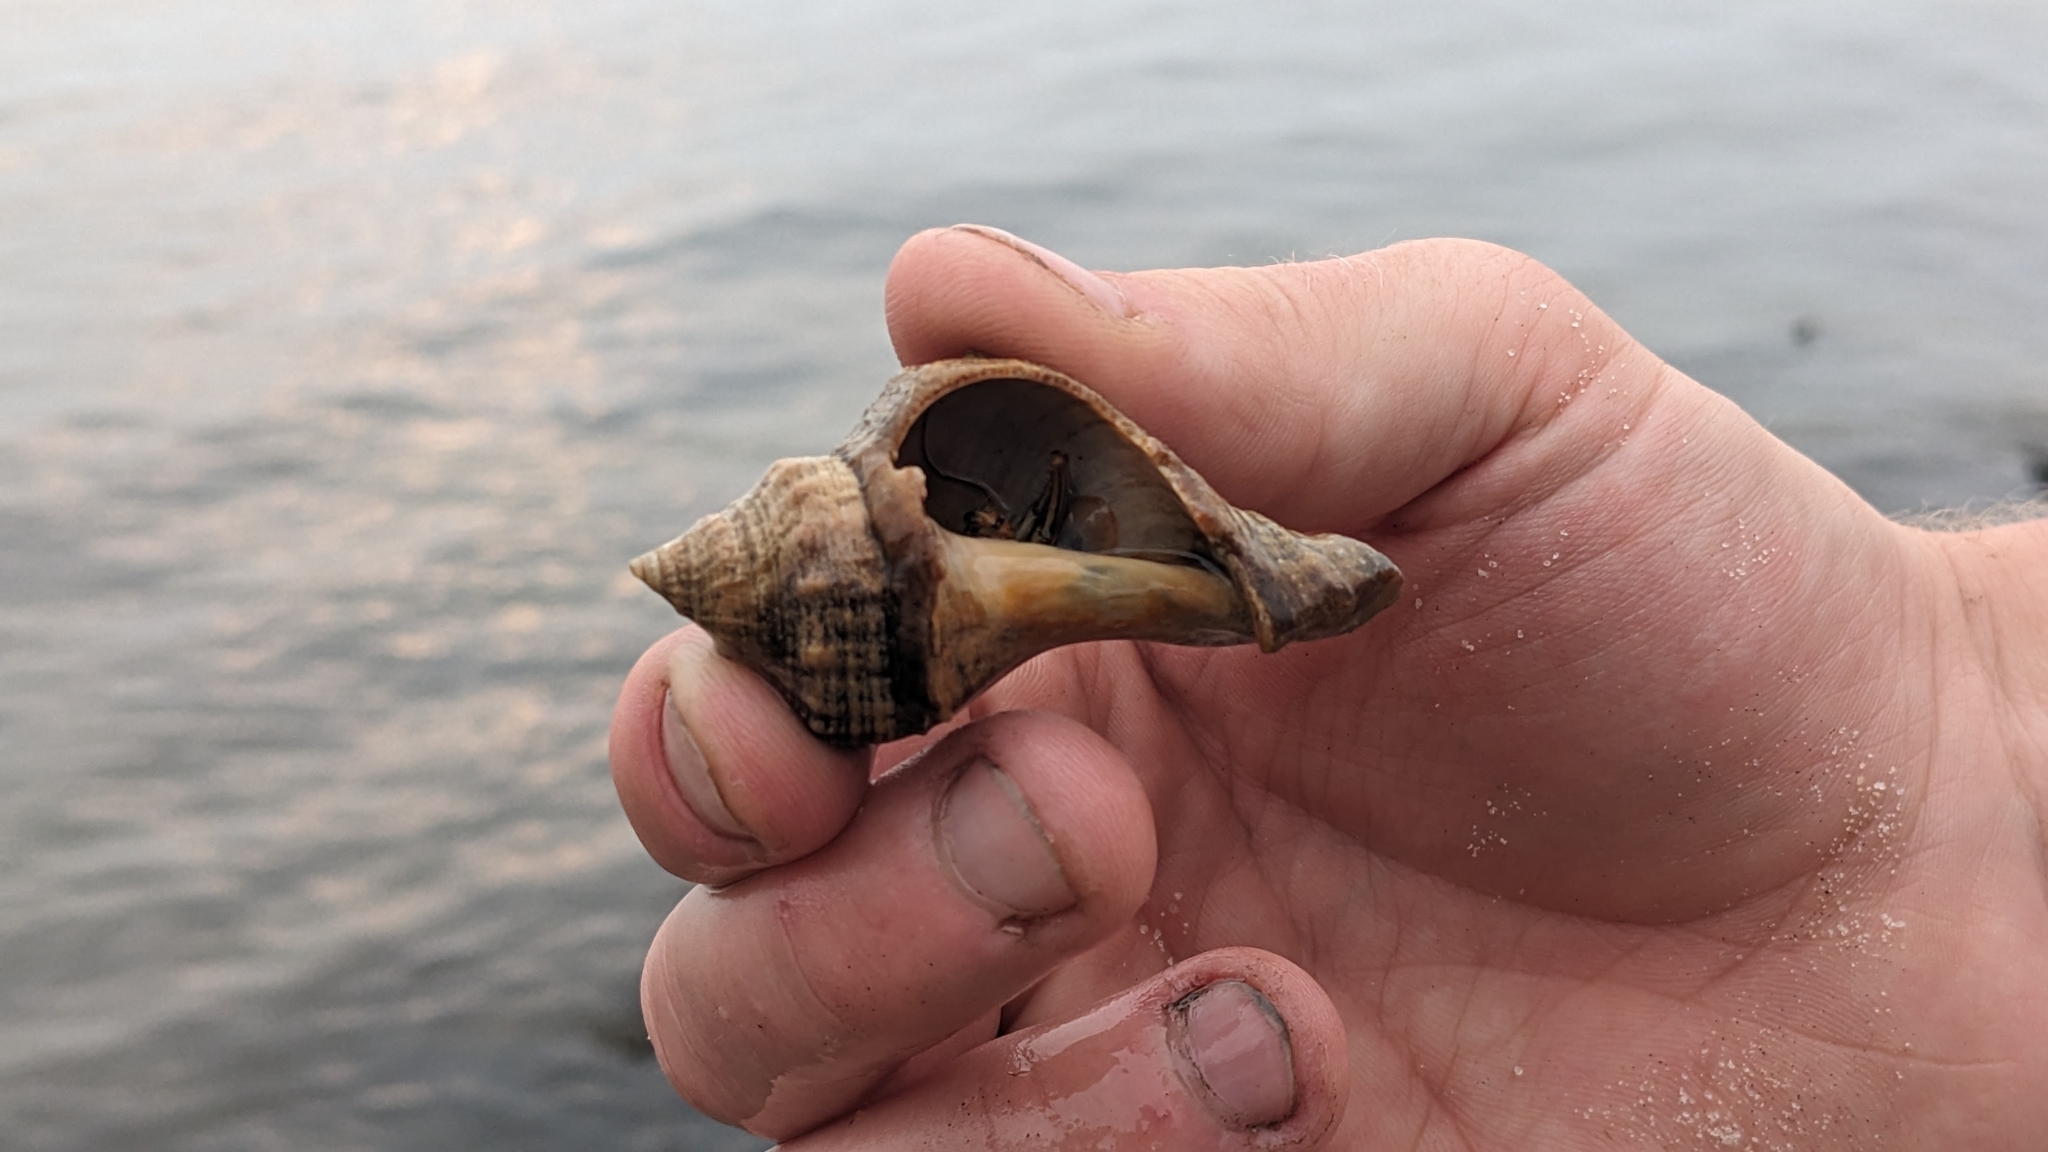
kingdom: Animalia
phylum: Arthropoda
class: Malacostraca
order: Decapoda
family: Diogenidae
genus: Clibanarius
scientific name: Clibanarius vittatus
